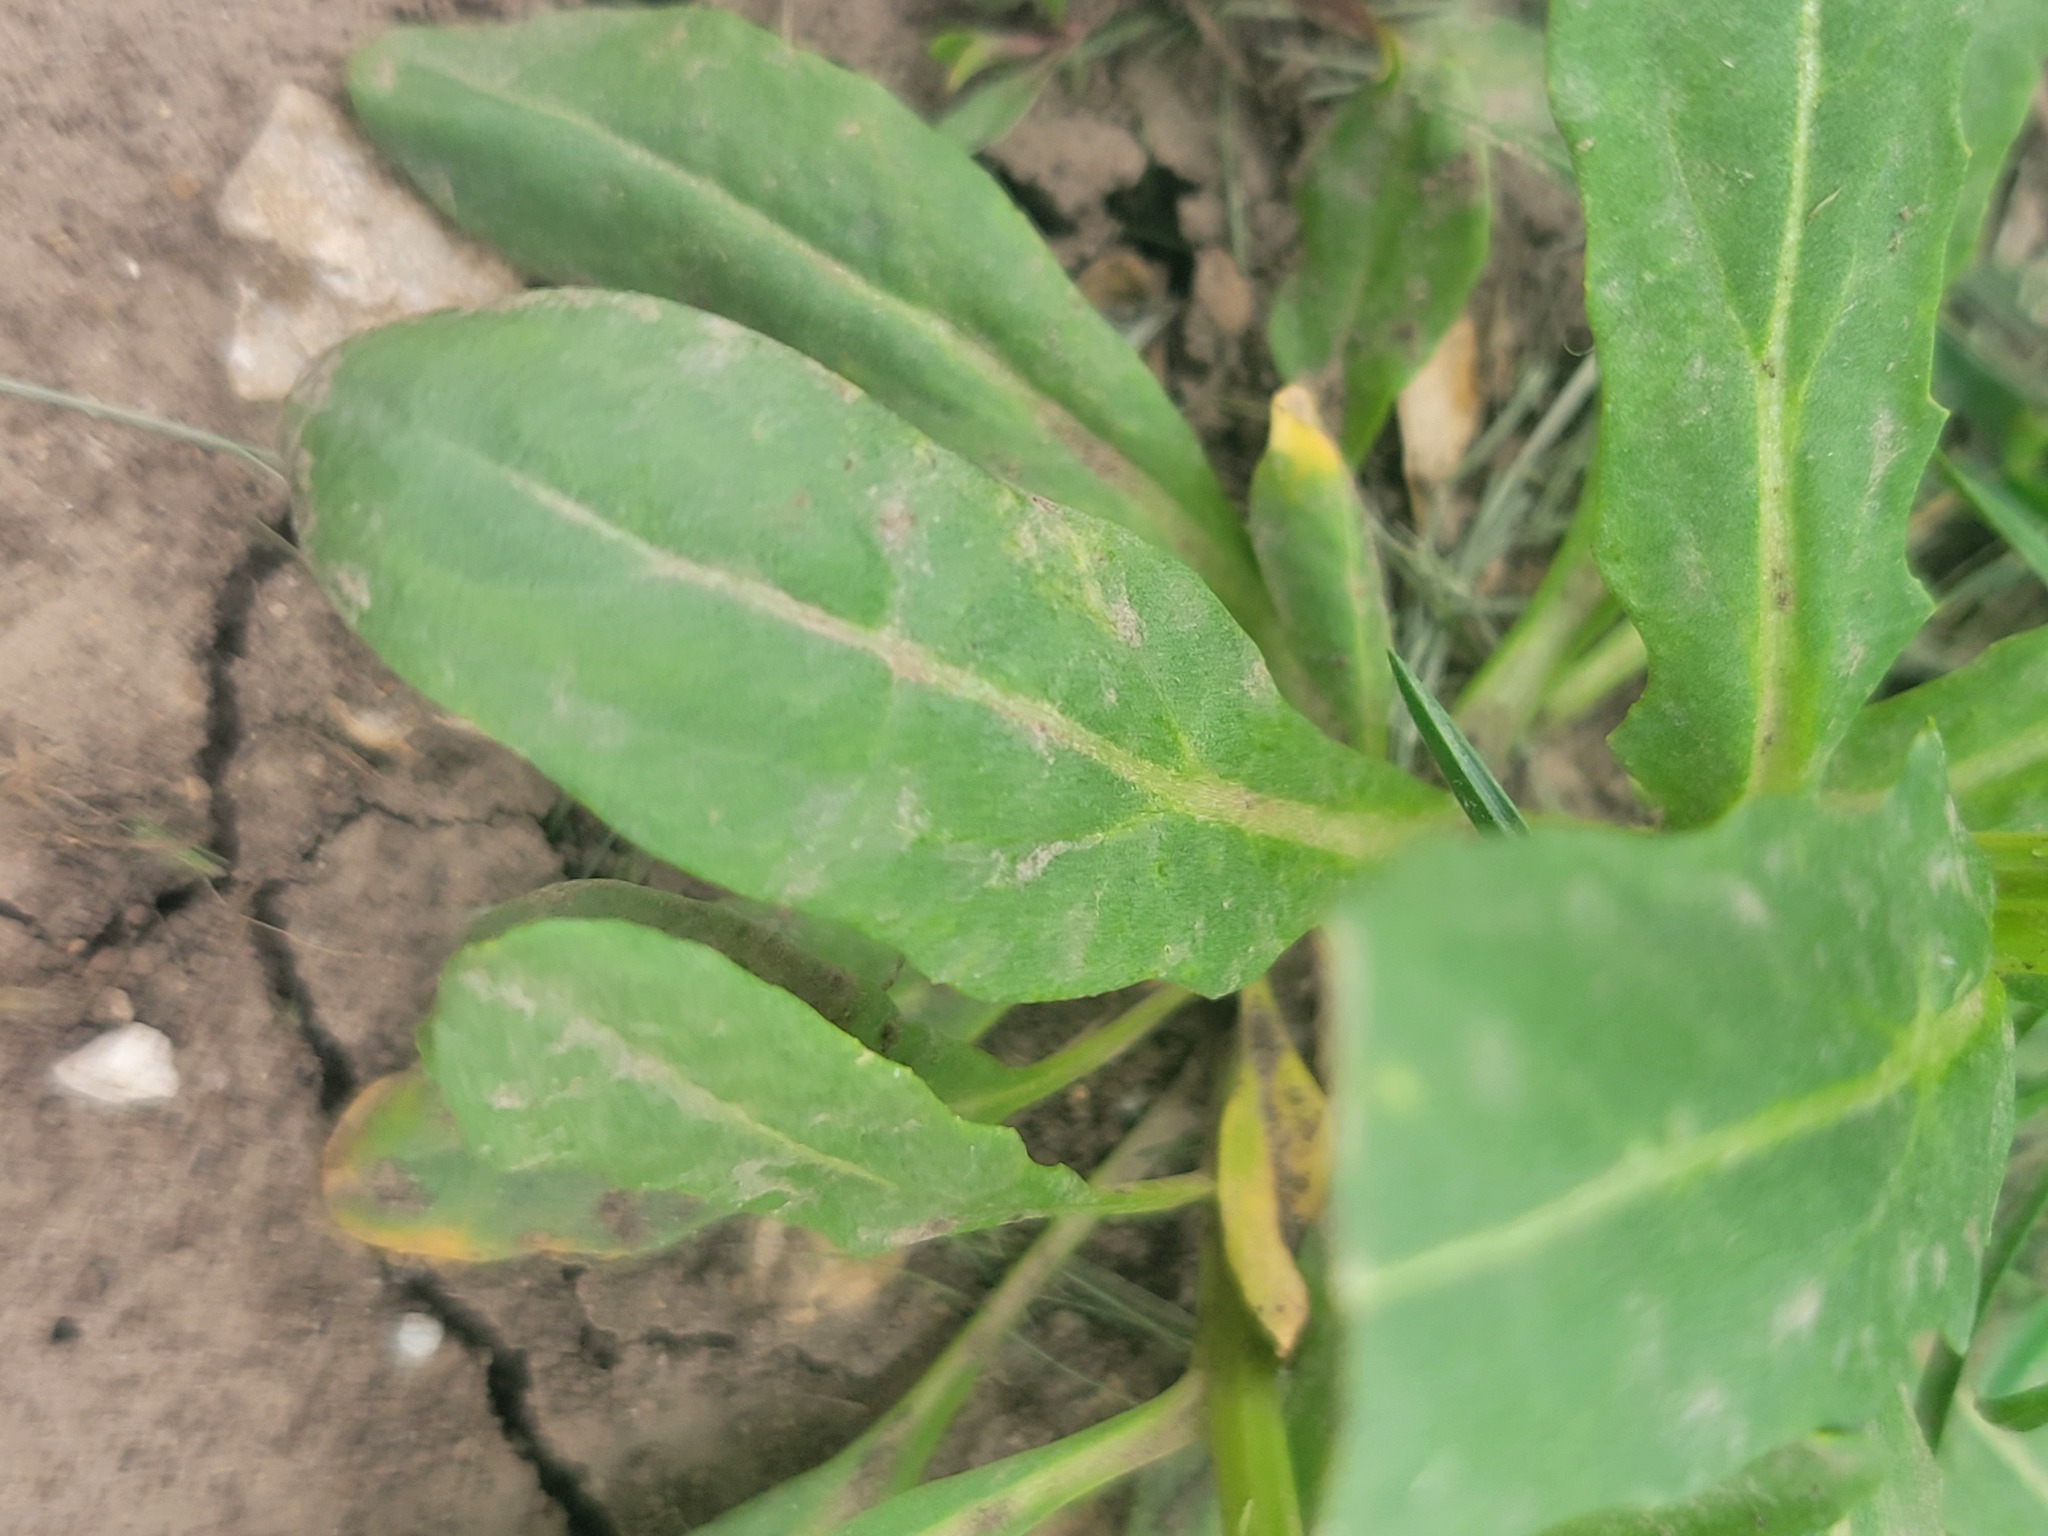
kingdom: Plantae
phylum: Tracheophyta
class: Magnoliopsida
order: Brassicales
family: Brassicaceae
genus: Thlaspi
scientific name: Thlaspi arvense
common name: Field pennycress
